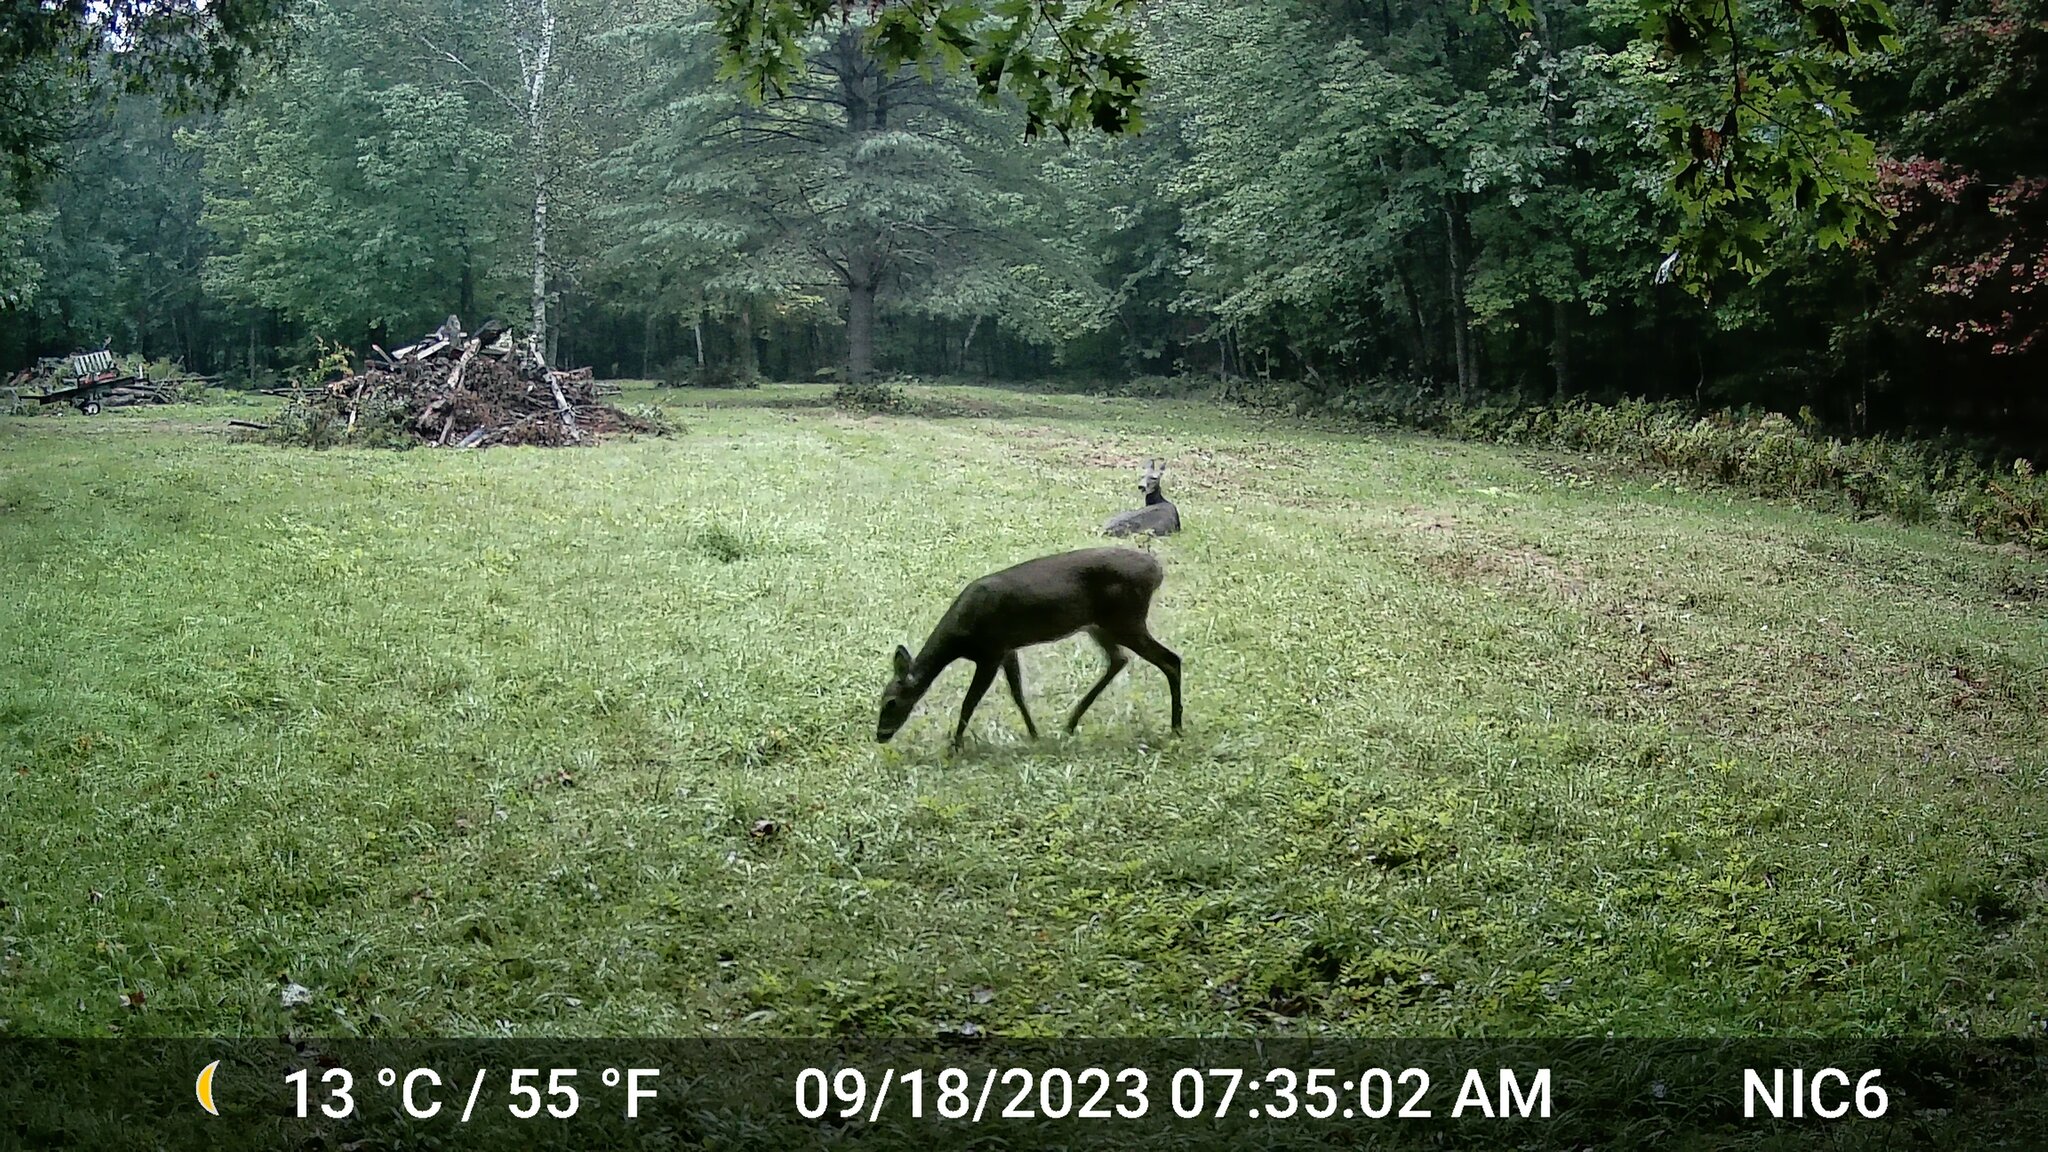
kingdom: Animalia
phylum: Chordata
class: Mammalia
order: Artiodactyla
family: Cervidae
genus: Odocoileus
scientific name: Odocoileus virginianus
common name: White-tailed deer
